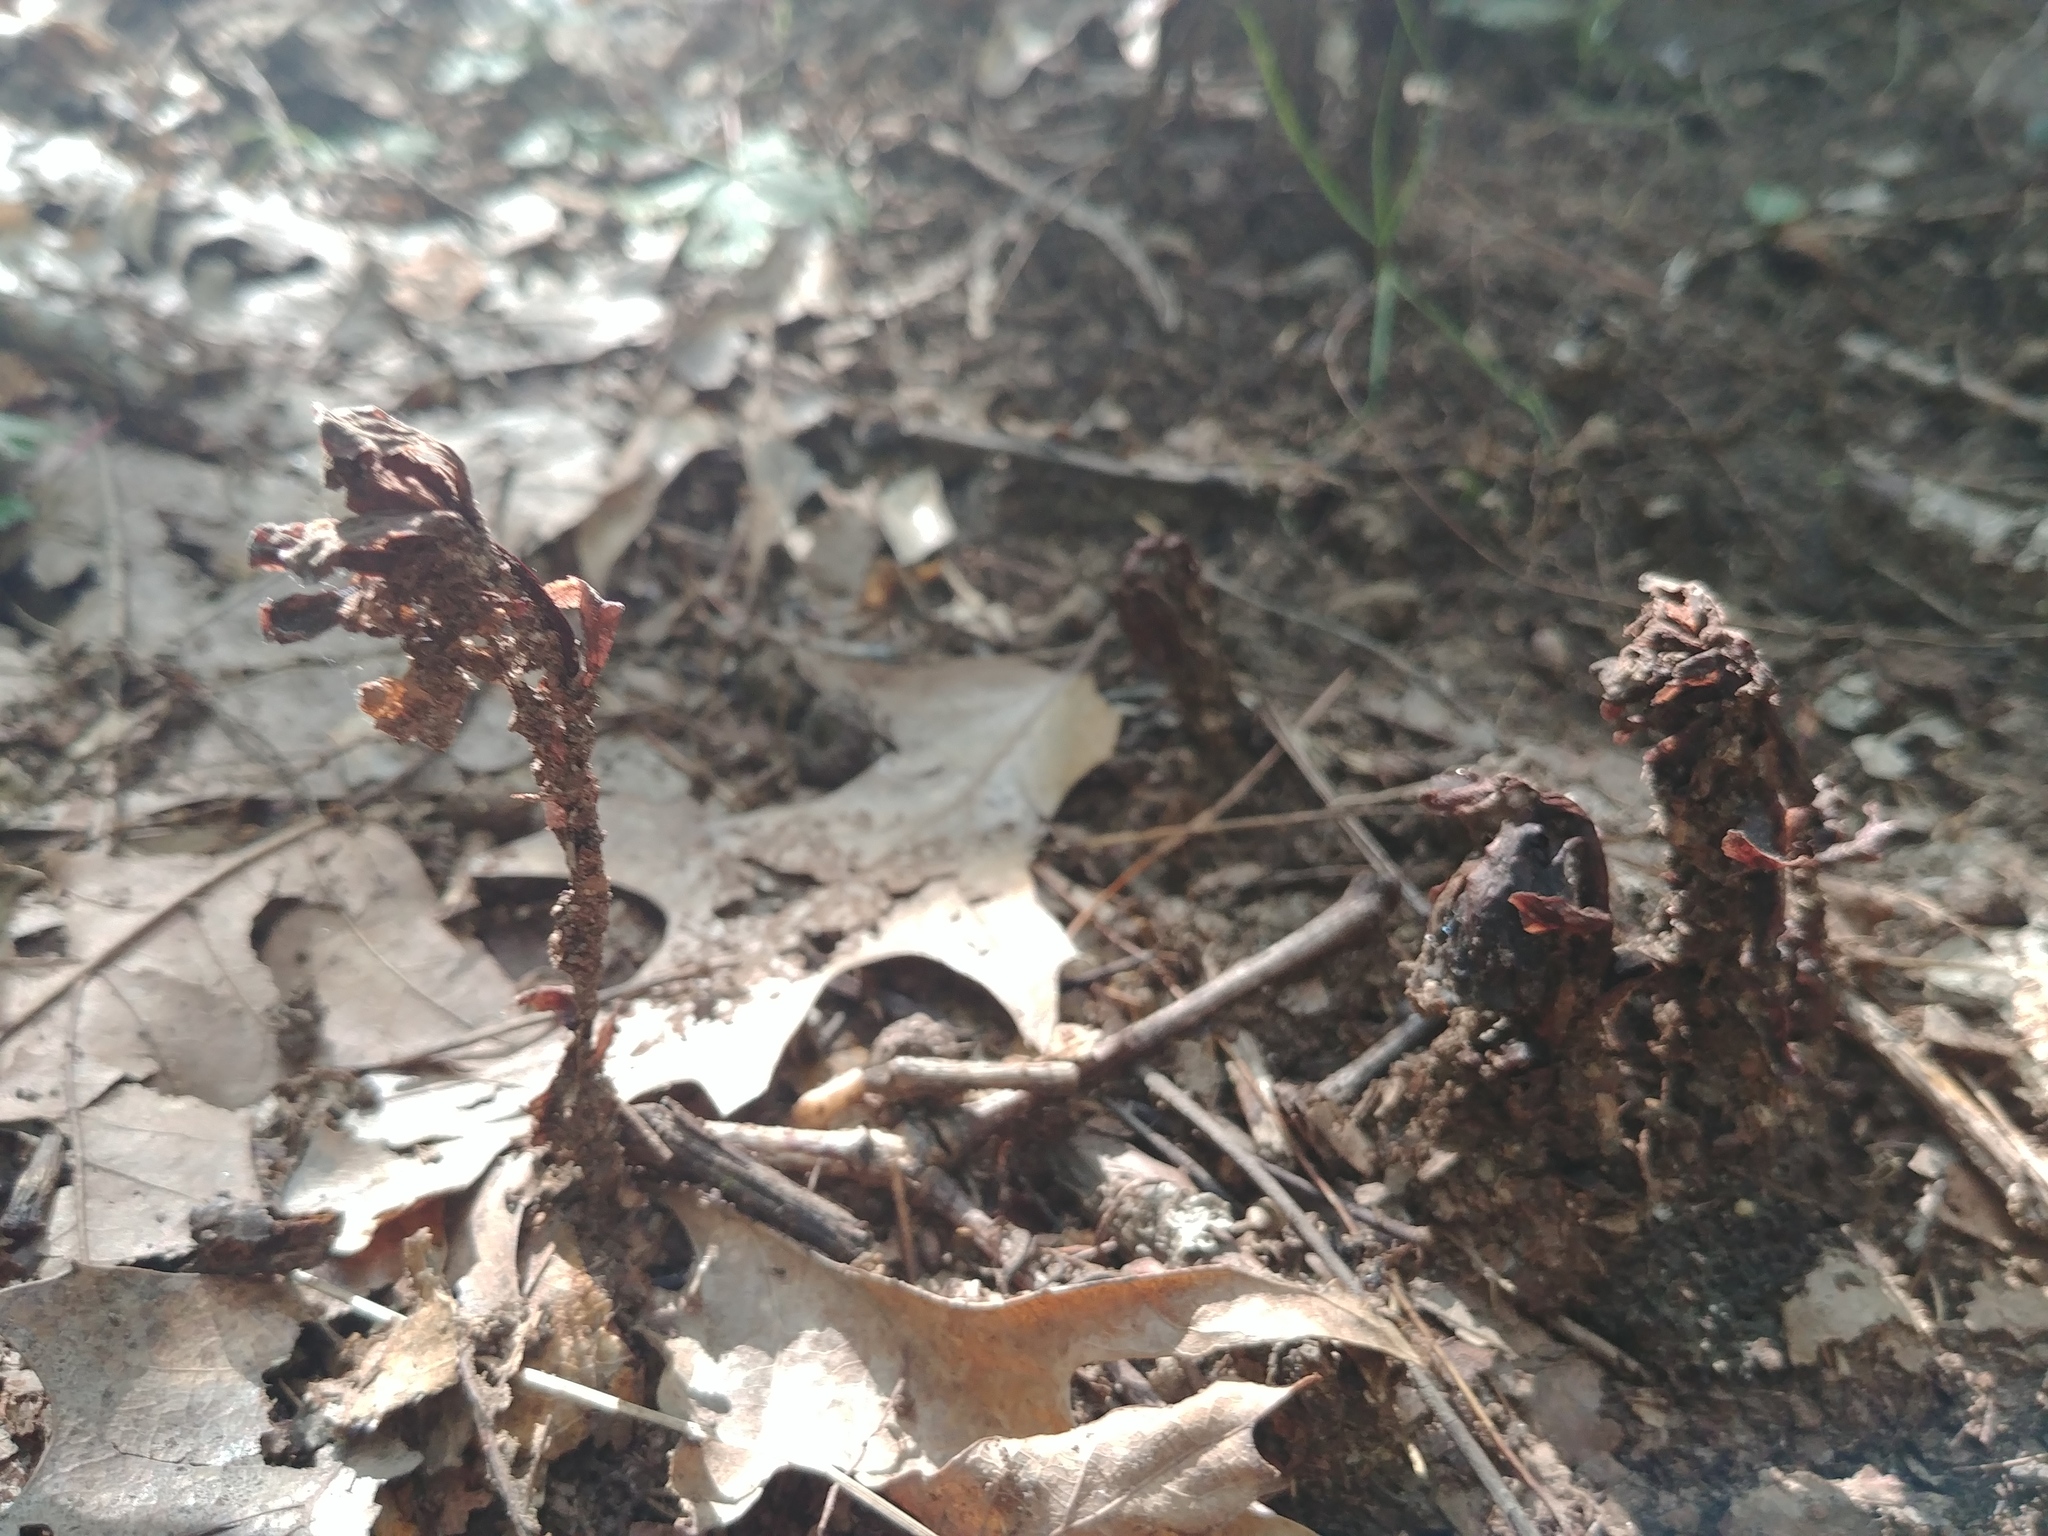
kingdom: Plantae
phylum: Tracheophyta
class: Magnoliopsida
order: Ericales
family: Ericaceae
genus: Hypopitys
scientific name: Hypopitys monotropa
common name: Yellow bird's-nest
